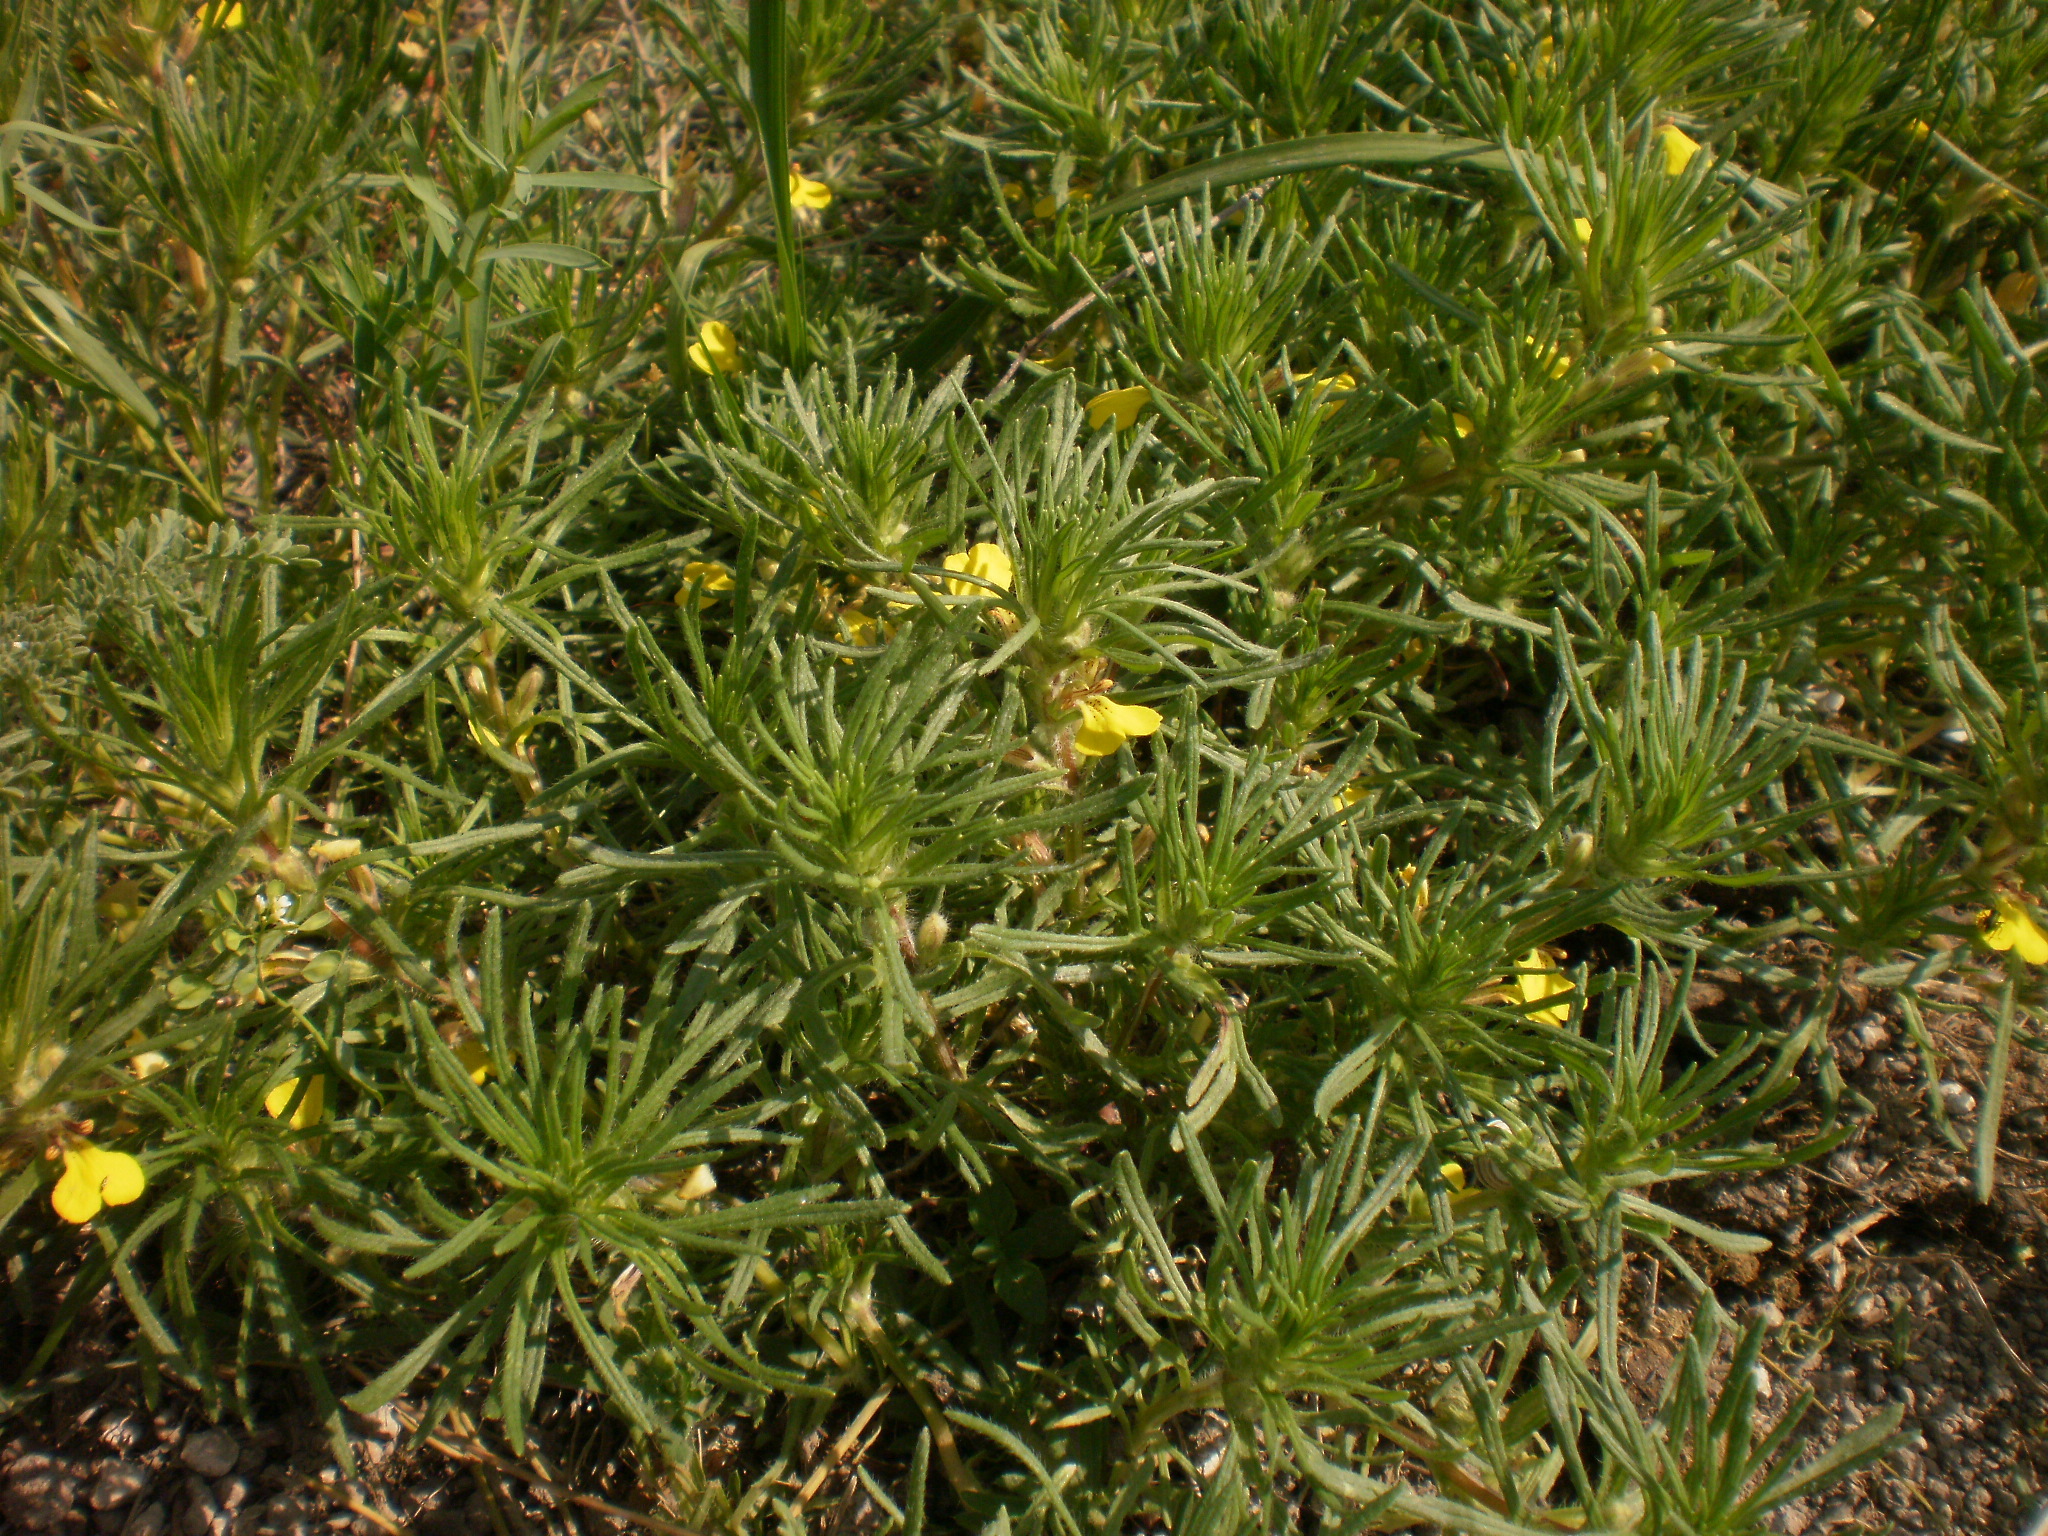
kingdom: Plantae
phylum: Tracheophyta
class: Magnoliopsida
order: Lamiales
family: Lamiaceae
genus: Ajuga
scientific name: Ajuga chamaepitys
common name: Ground-pine
